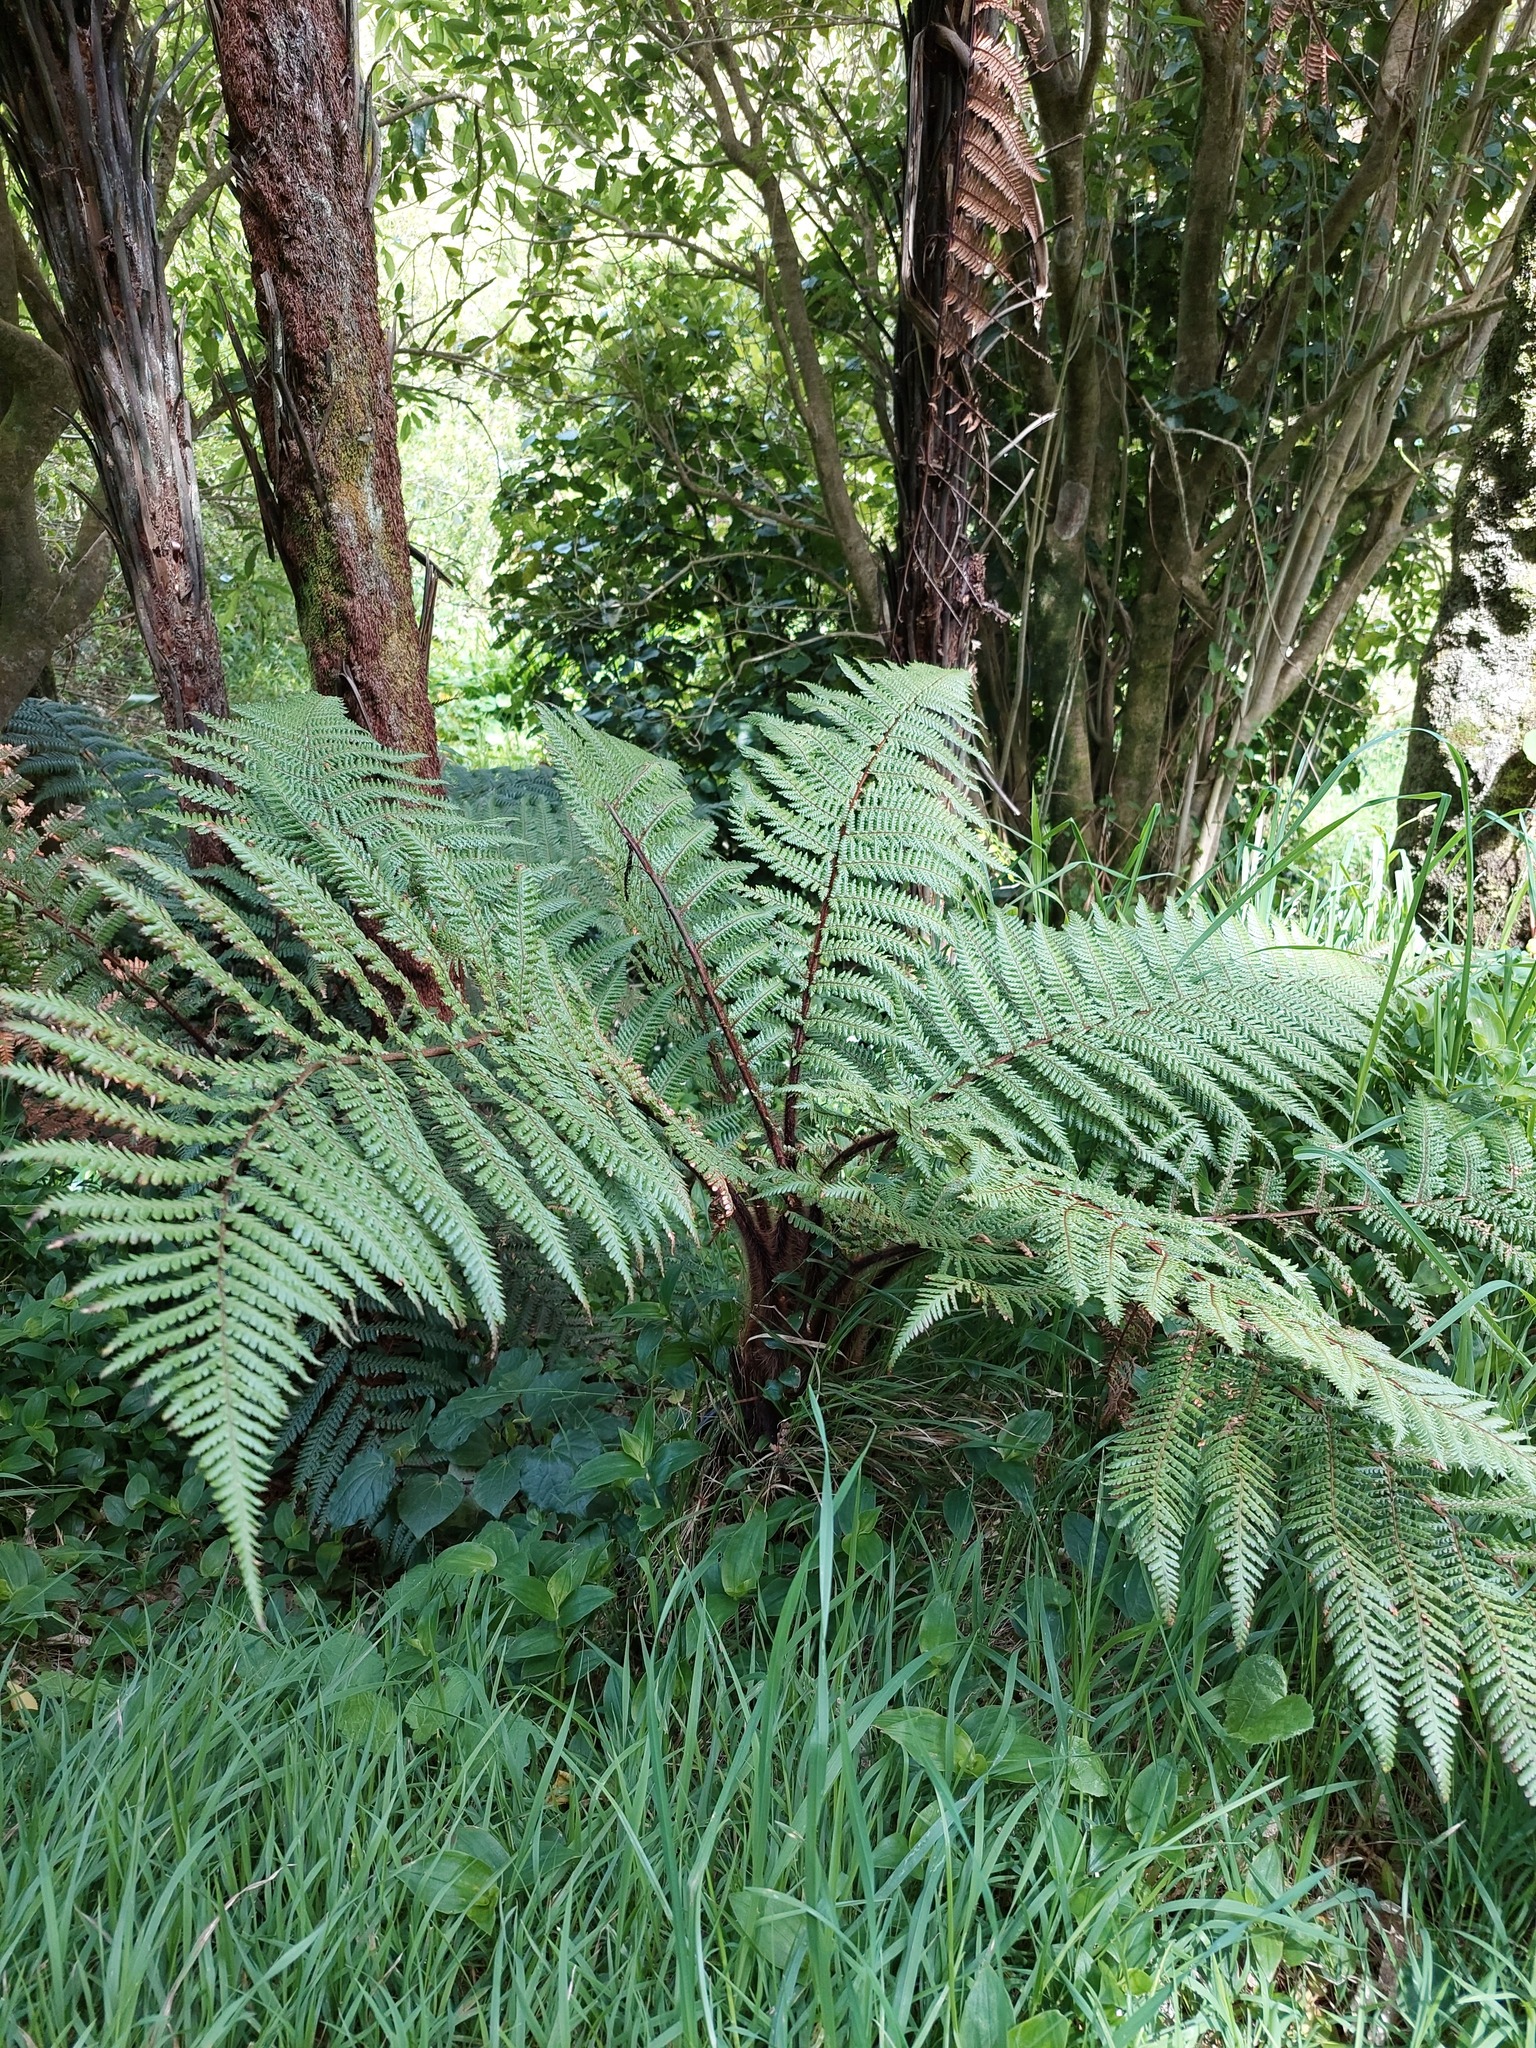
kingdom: Plantae
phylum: Tracheophyta
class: Polypodiopsida
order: Cyatheales
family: Dicksoniaceae
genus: Dicksonia
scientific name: Dicksonia squarrosa
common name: Hard treefern
